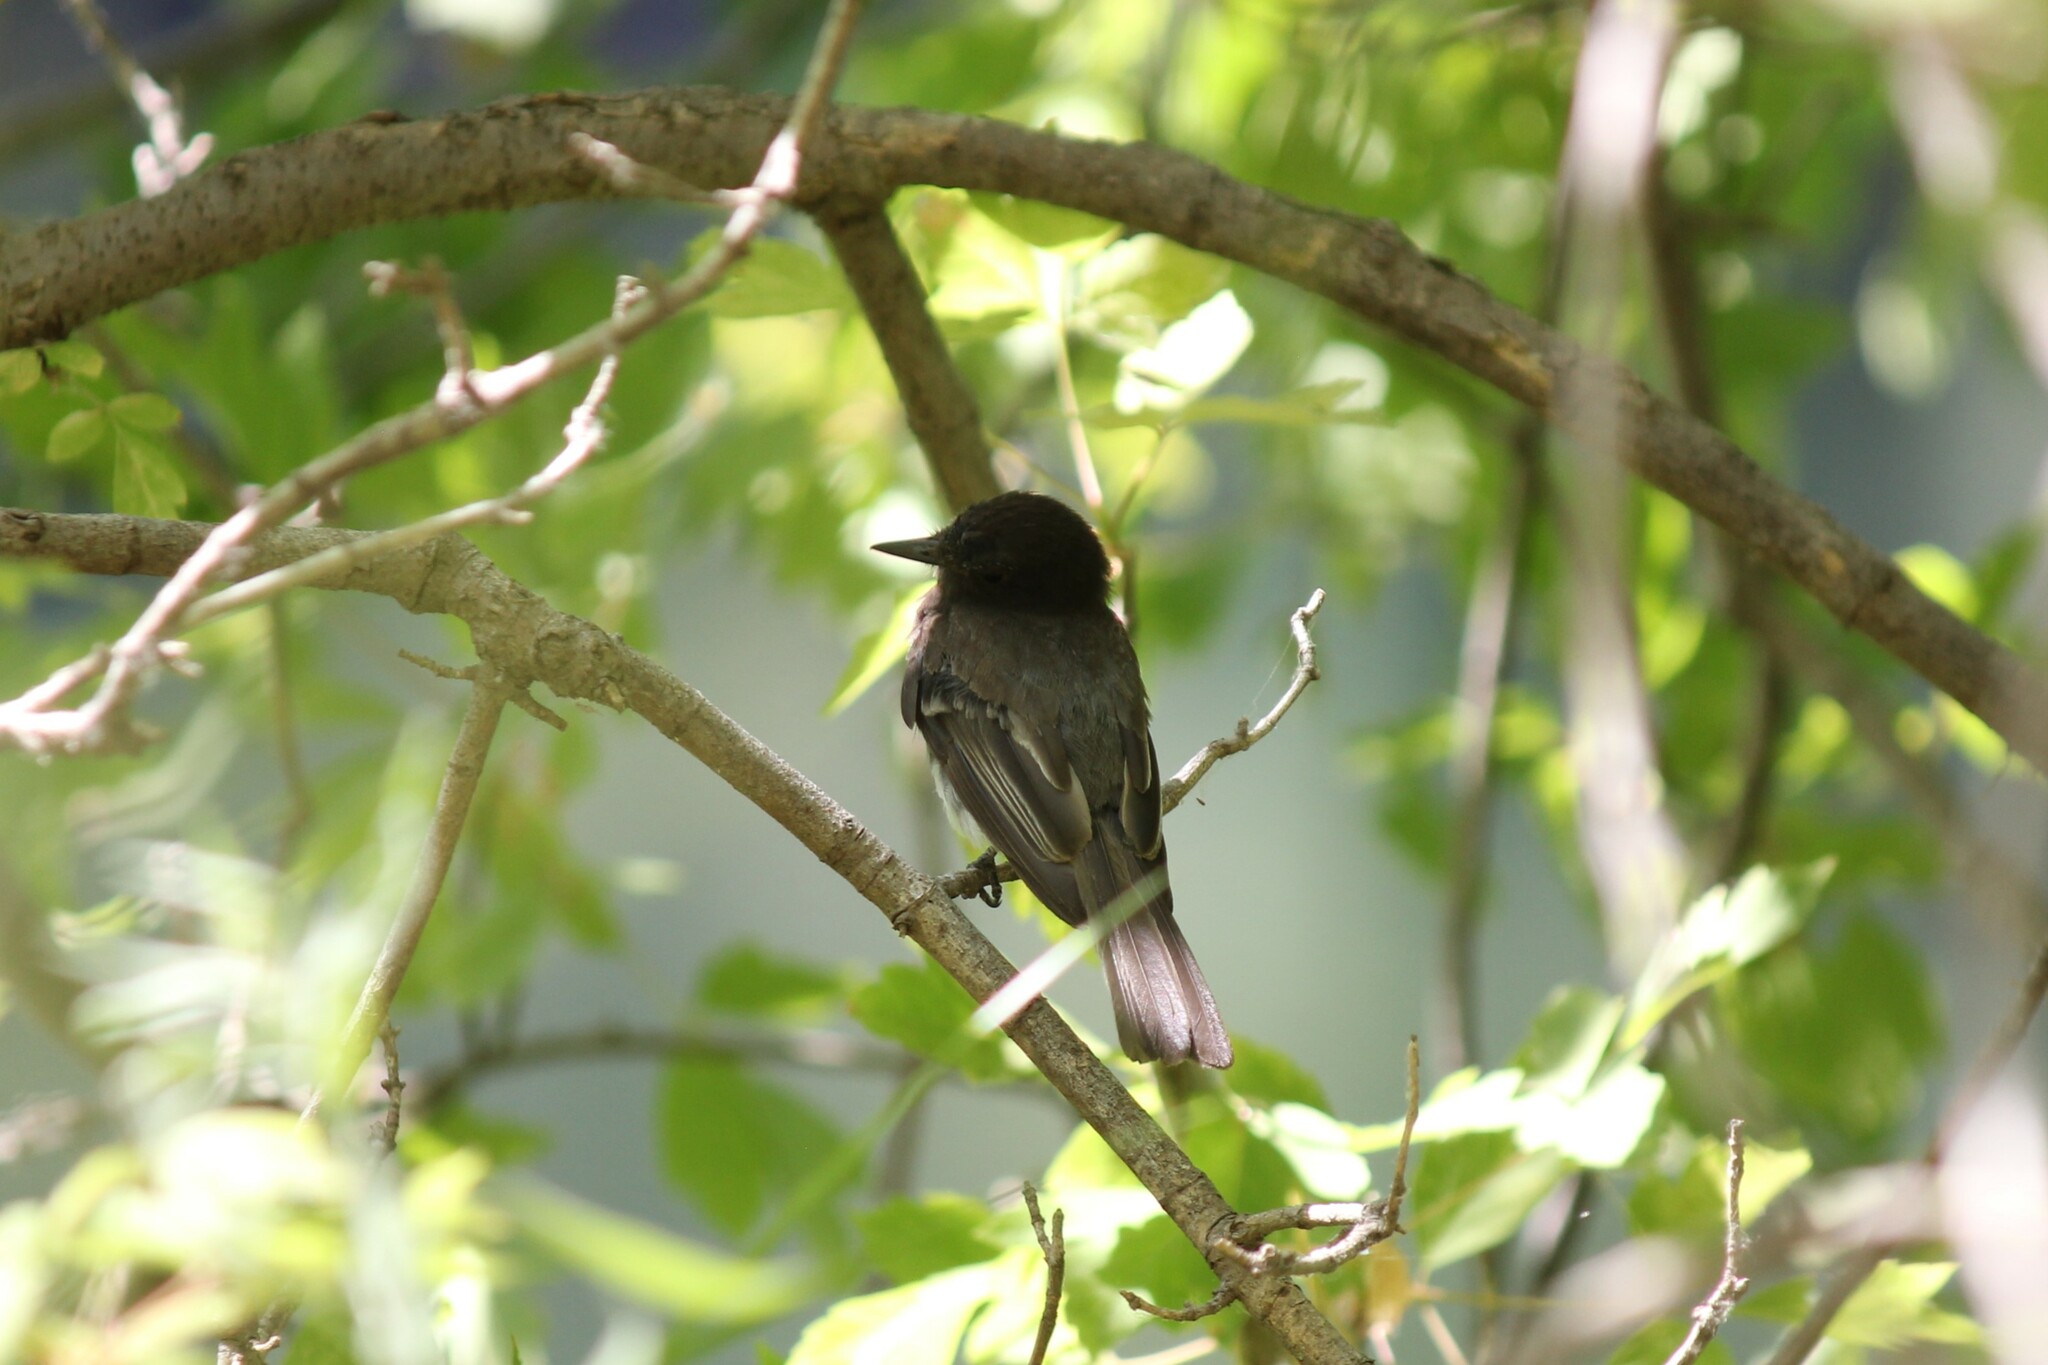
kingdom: Animalia
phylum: Chordata
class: Aves
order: Passeriformes
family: Tyrannidae
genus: Sayornis
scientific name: Sayornis nigricans
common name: Black phoebe
